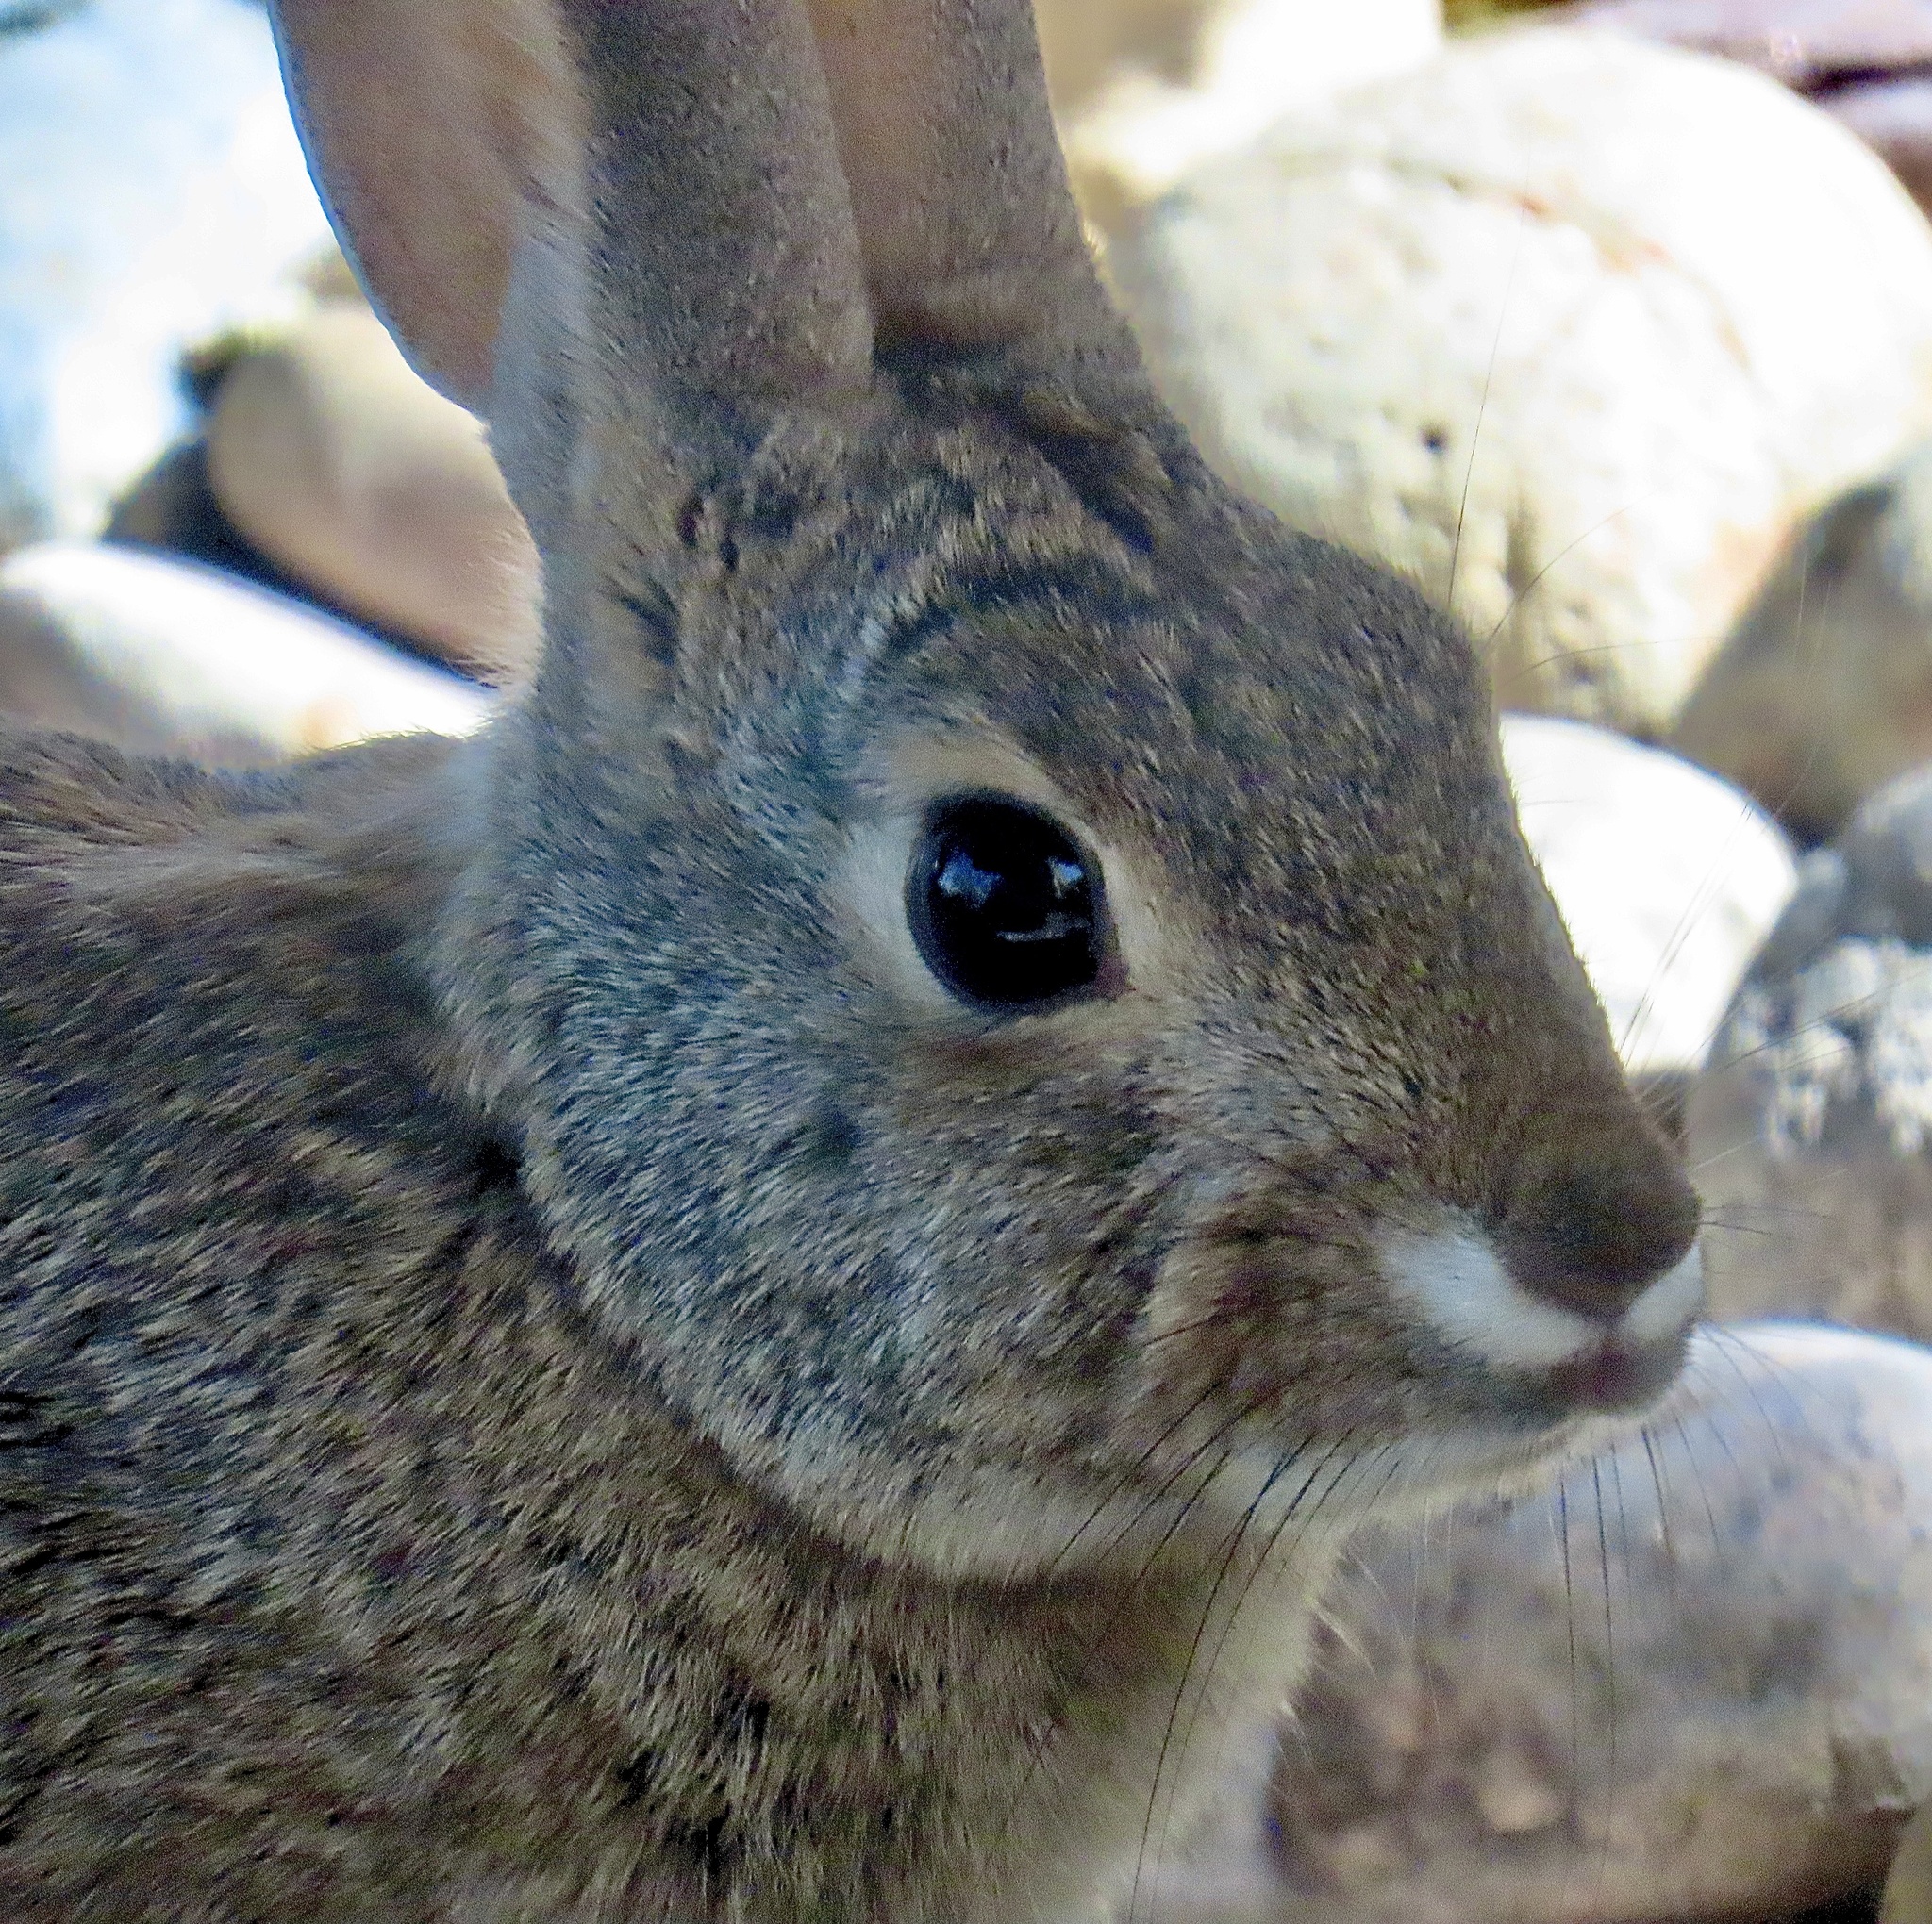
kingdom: Animalia
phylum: Chordata
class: Mammalia
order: Lagomorpha
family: Leporidae
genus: Sylvilagus
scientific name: Sylvilagus audubonii
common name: Desert cottontail
